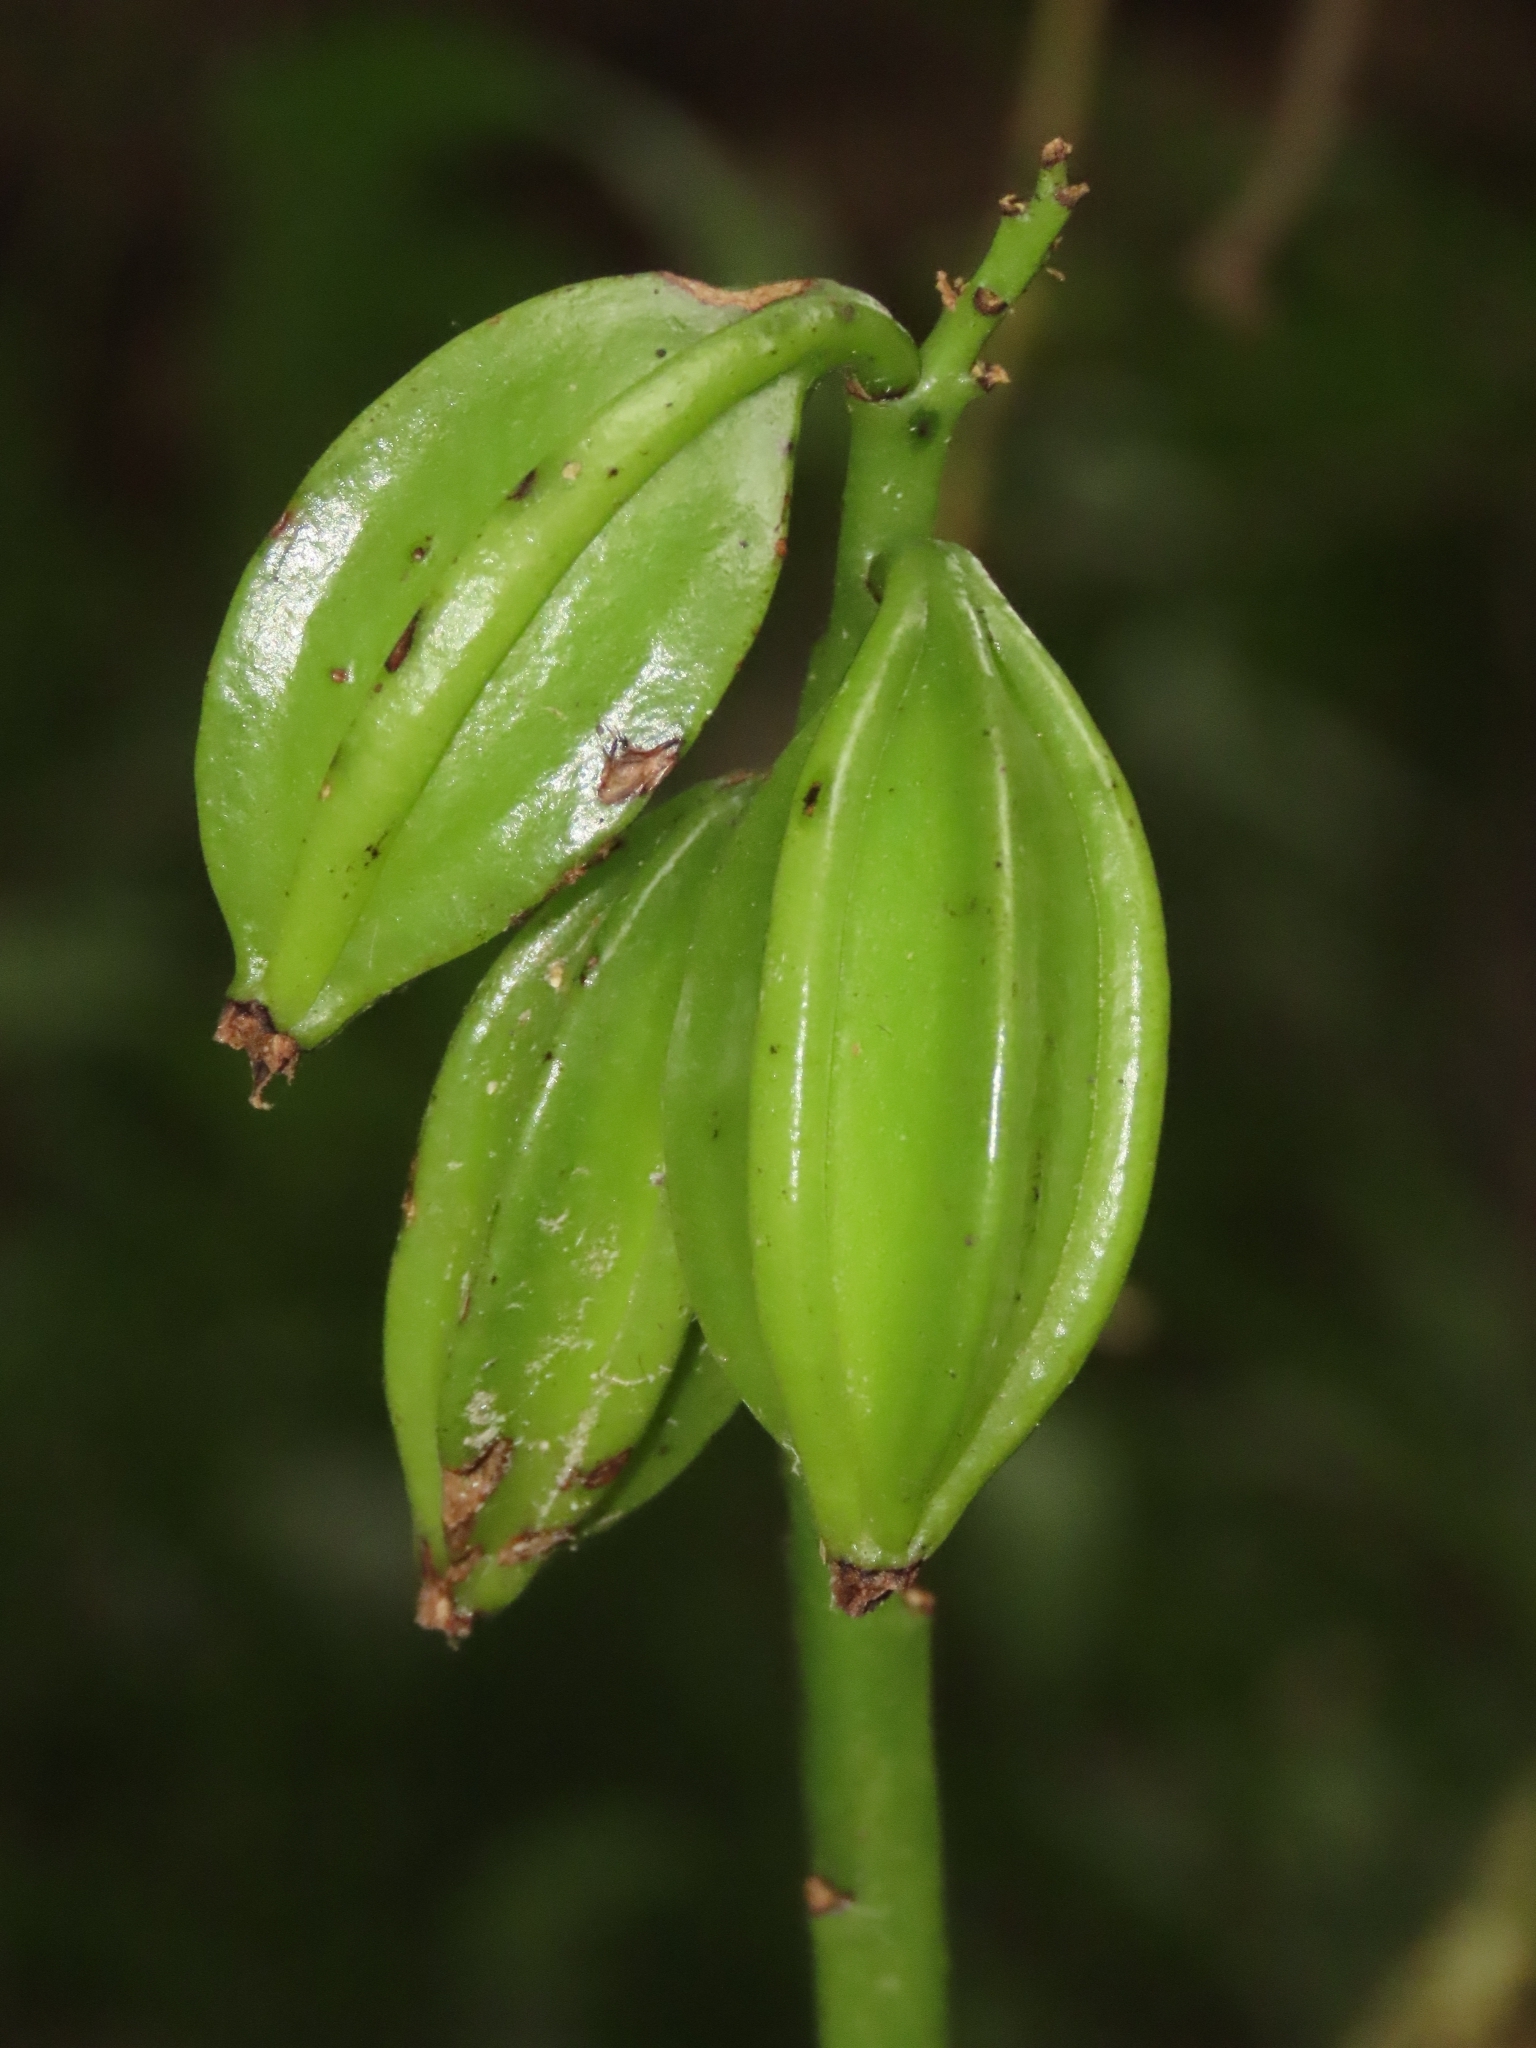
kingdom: Plantae
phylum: Tracheophyta
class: Liliopsida
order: Asparagales
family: Orchidaceae
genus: Eulophia
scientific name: Eulophia cernua
